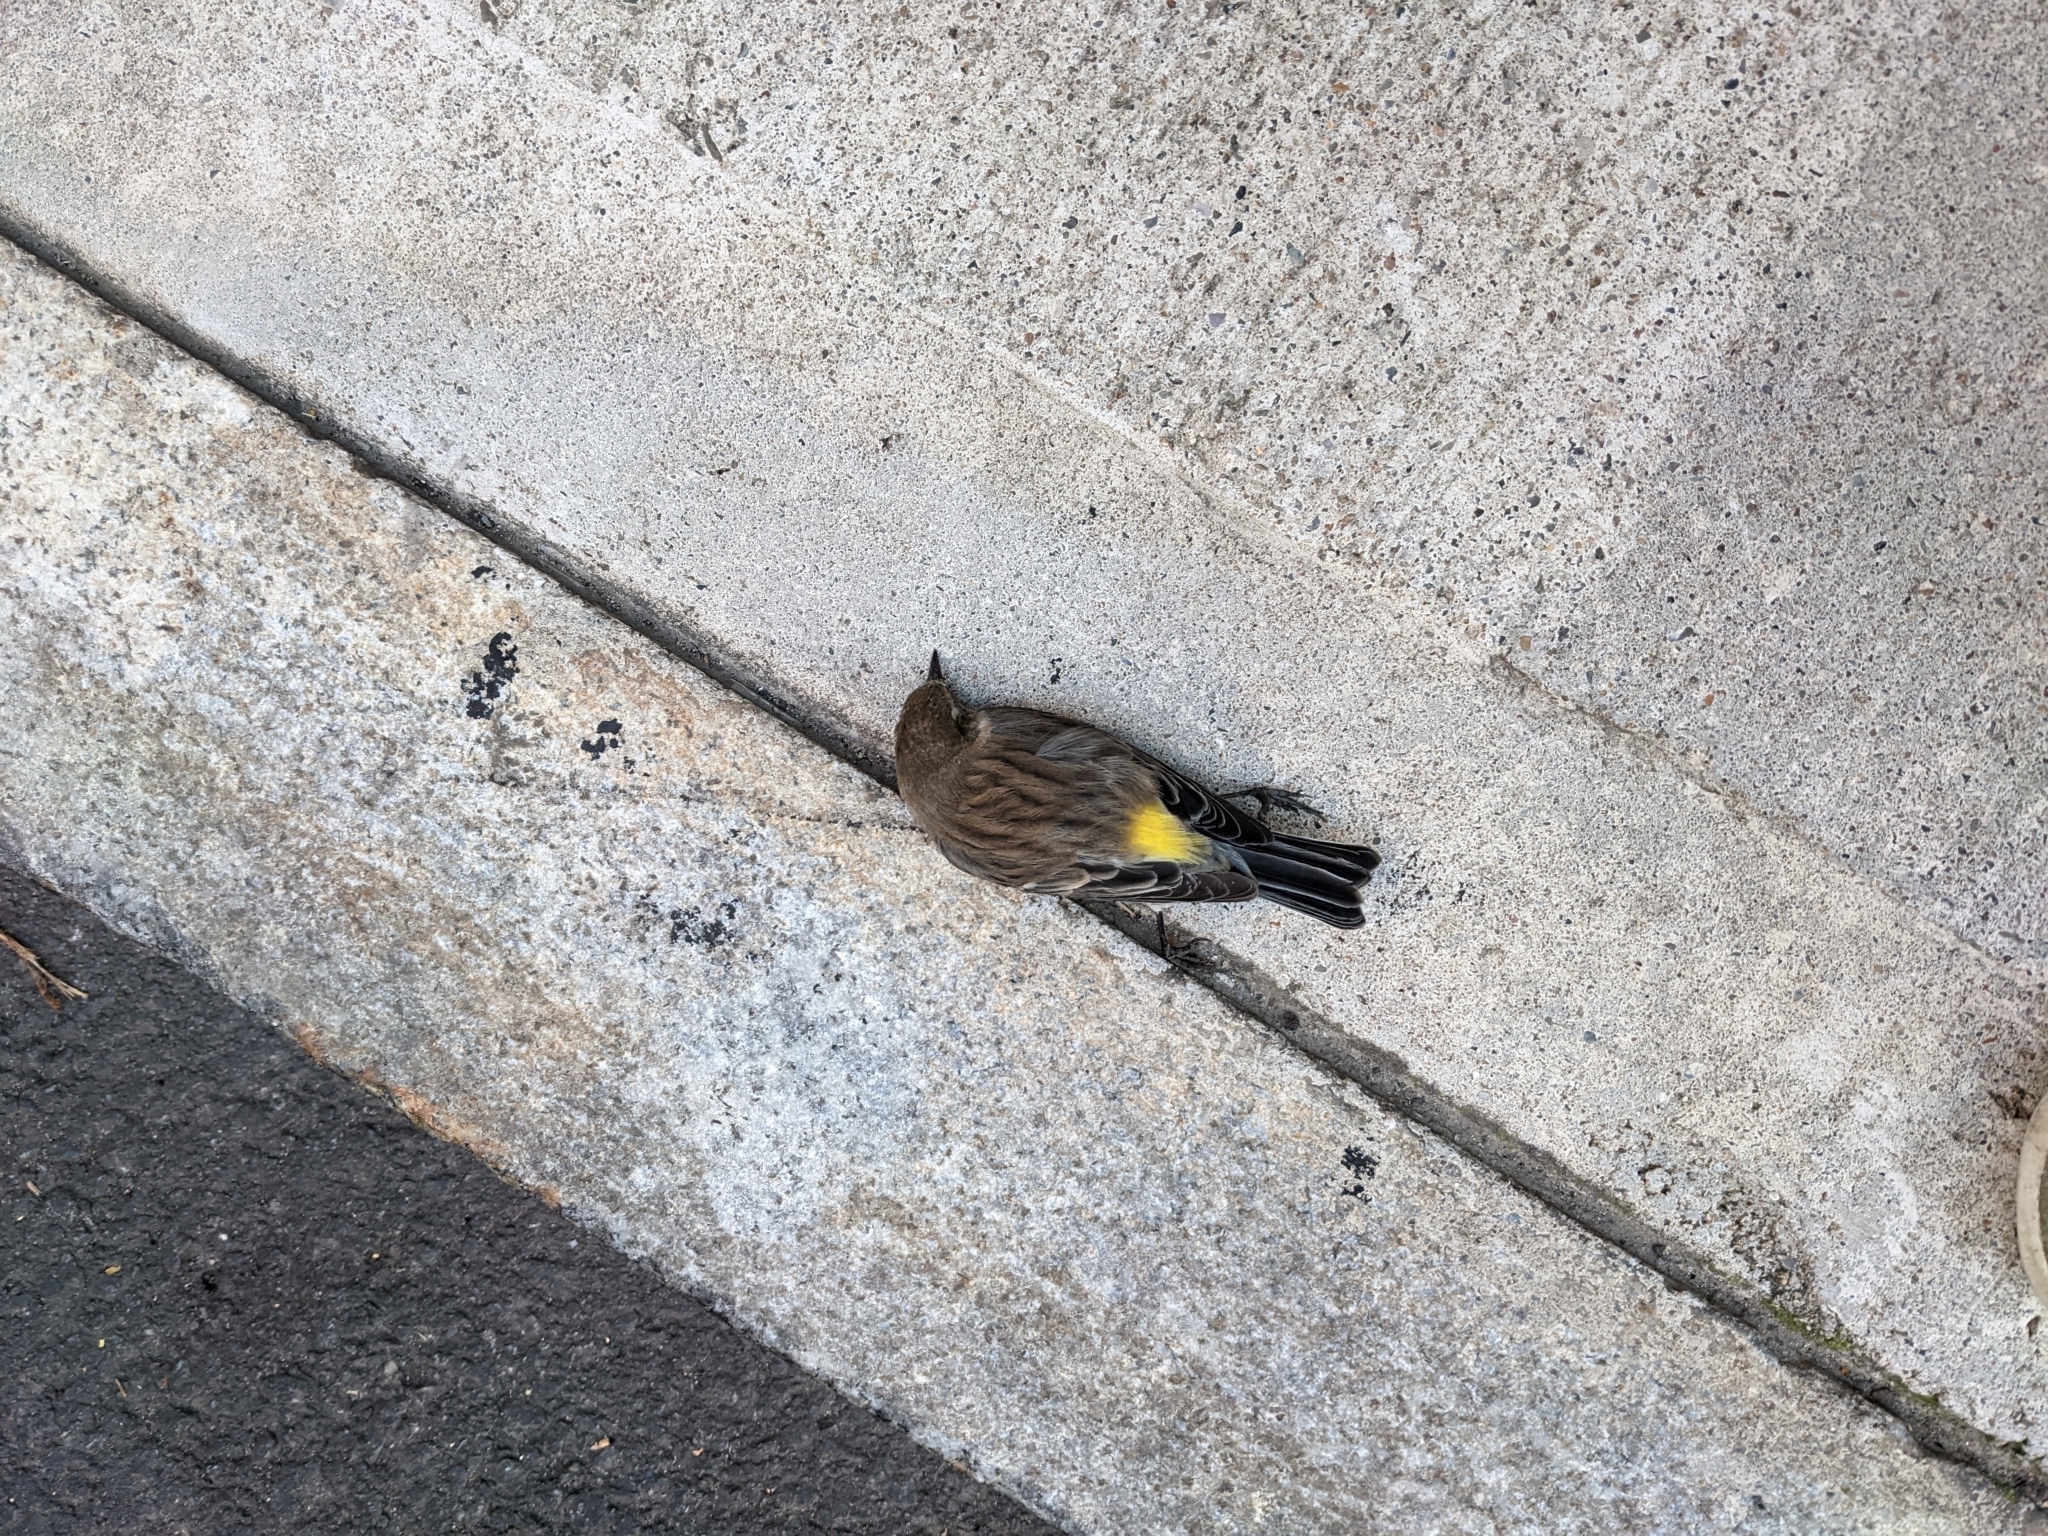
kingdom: Animalia
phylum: Chordata
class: Aves
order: Passeriformes
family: Parulidae
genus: Setophaga
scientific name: Setophaga coronata
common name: Myrtle warbler
